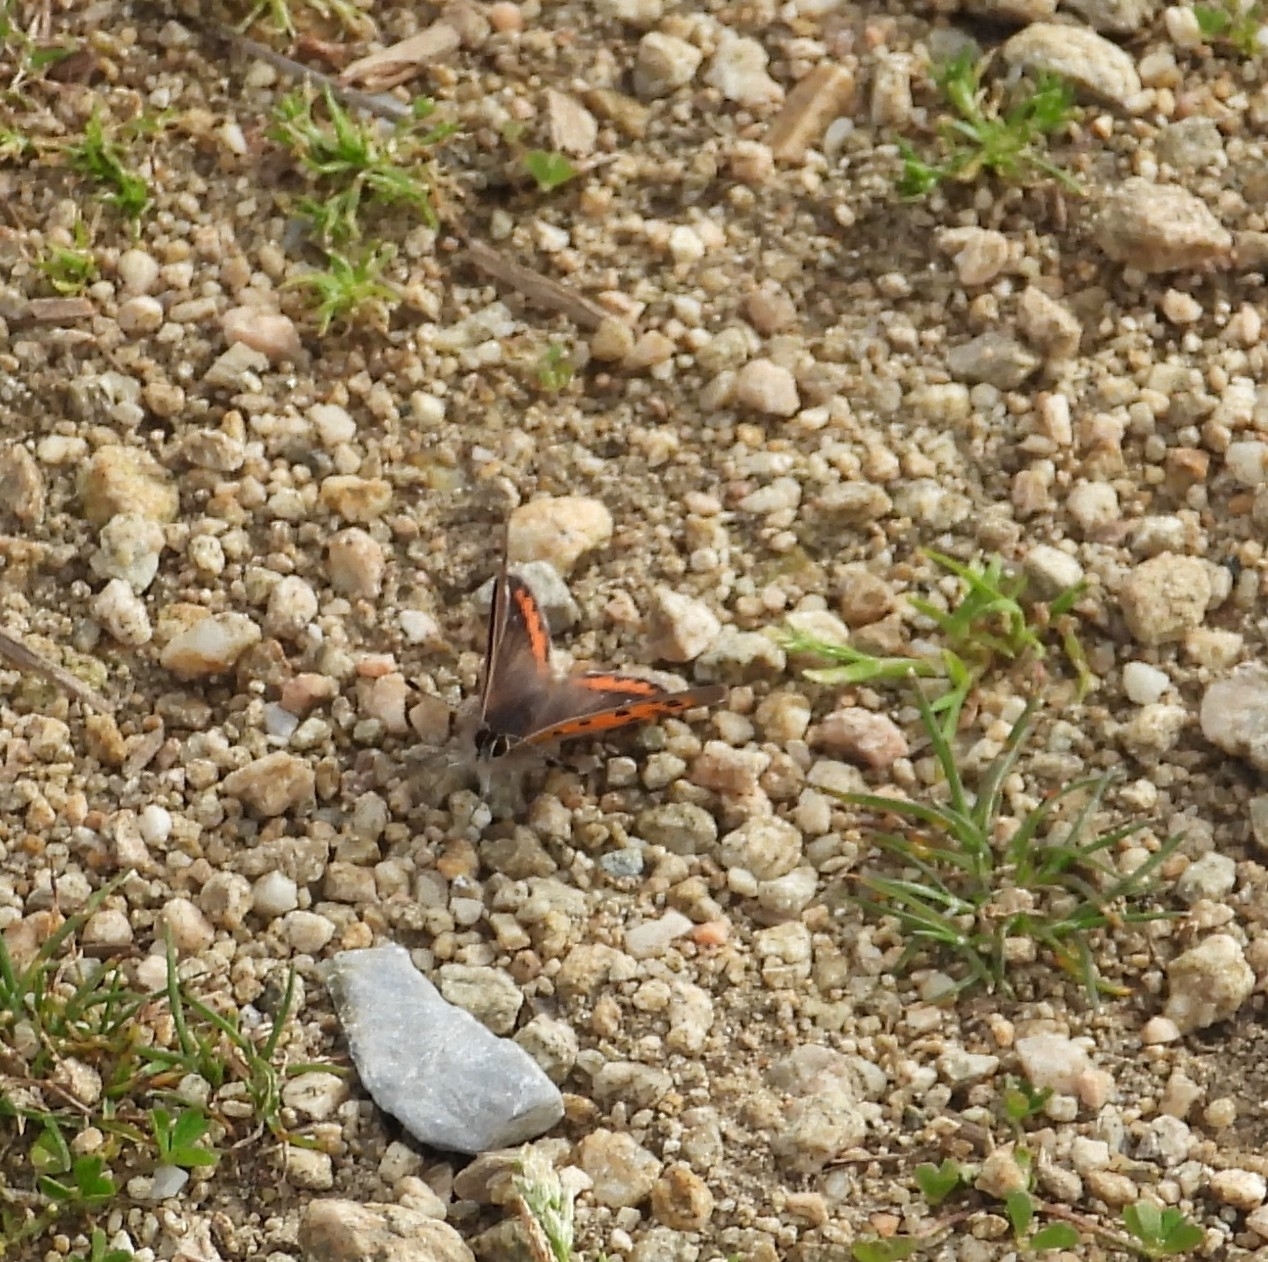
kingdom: Animalia
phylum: Arthropoda
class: Insecta
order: Lepidoptera
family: Lycaenidae
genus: Lycaena
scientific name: Lycaena phlaeas
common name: Small copper
